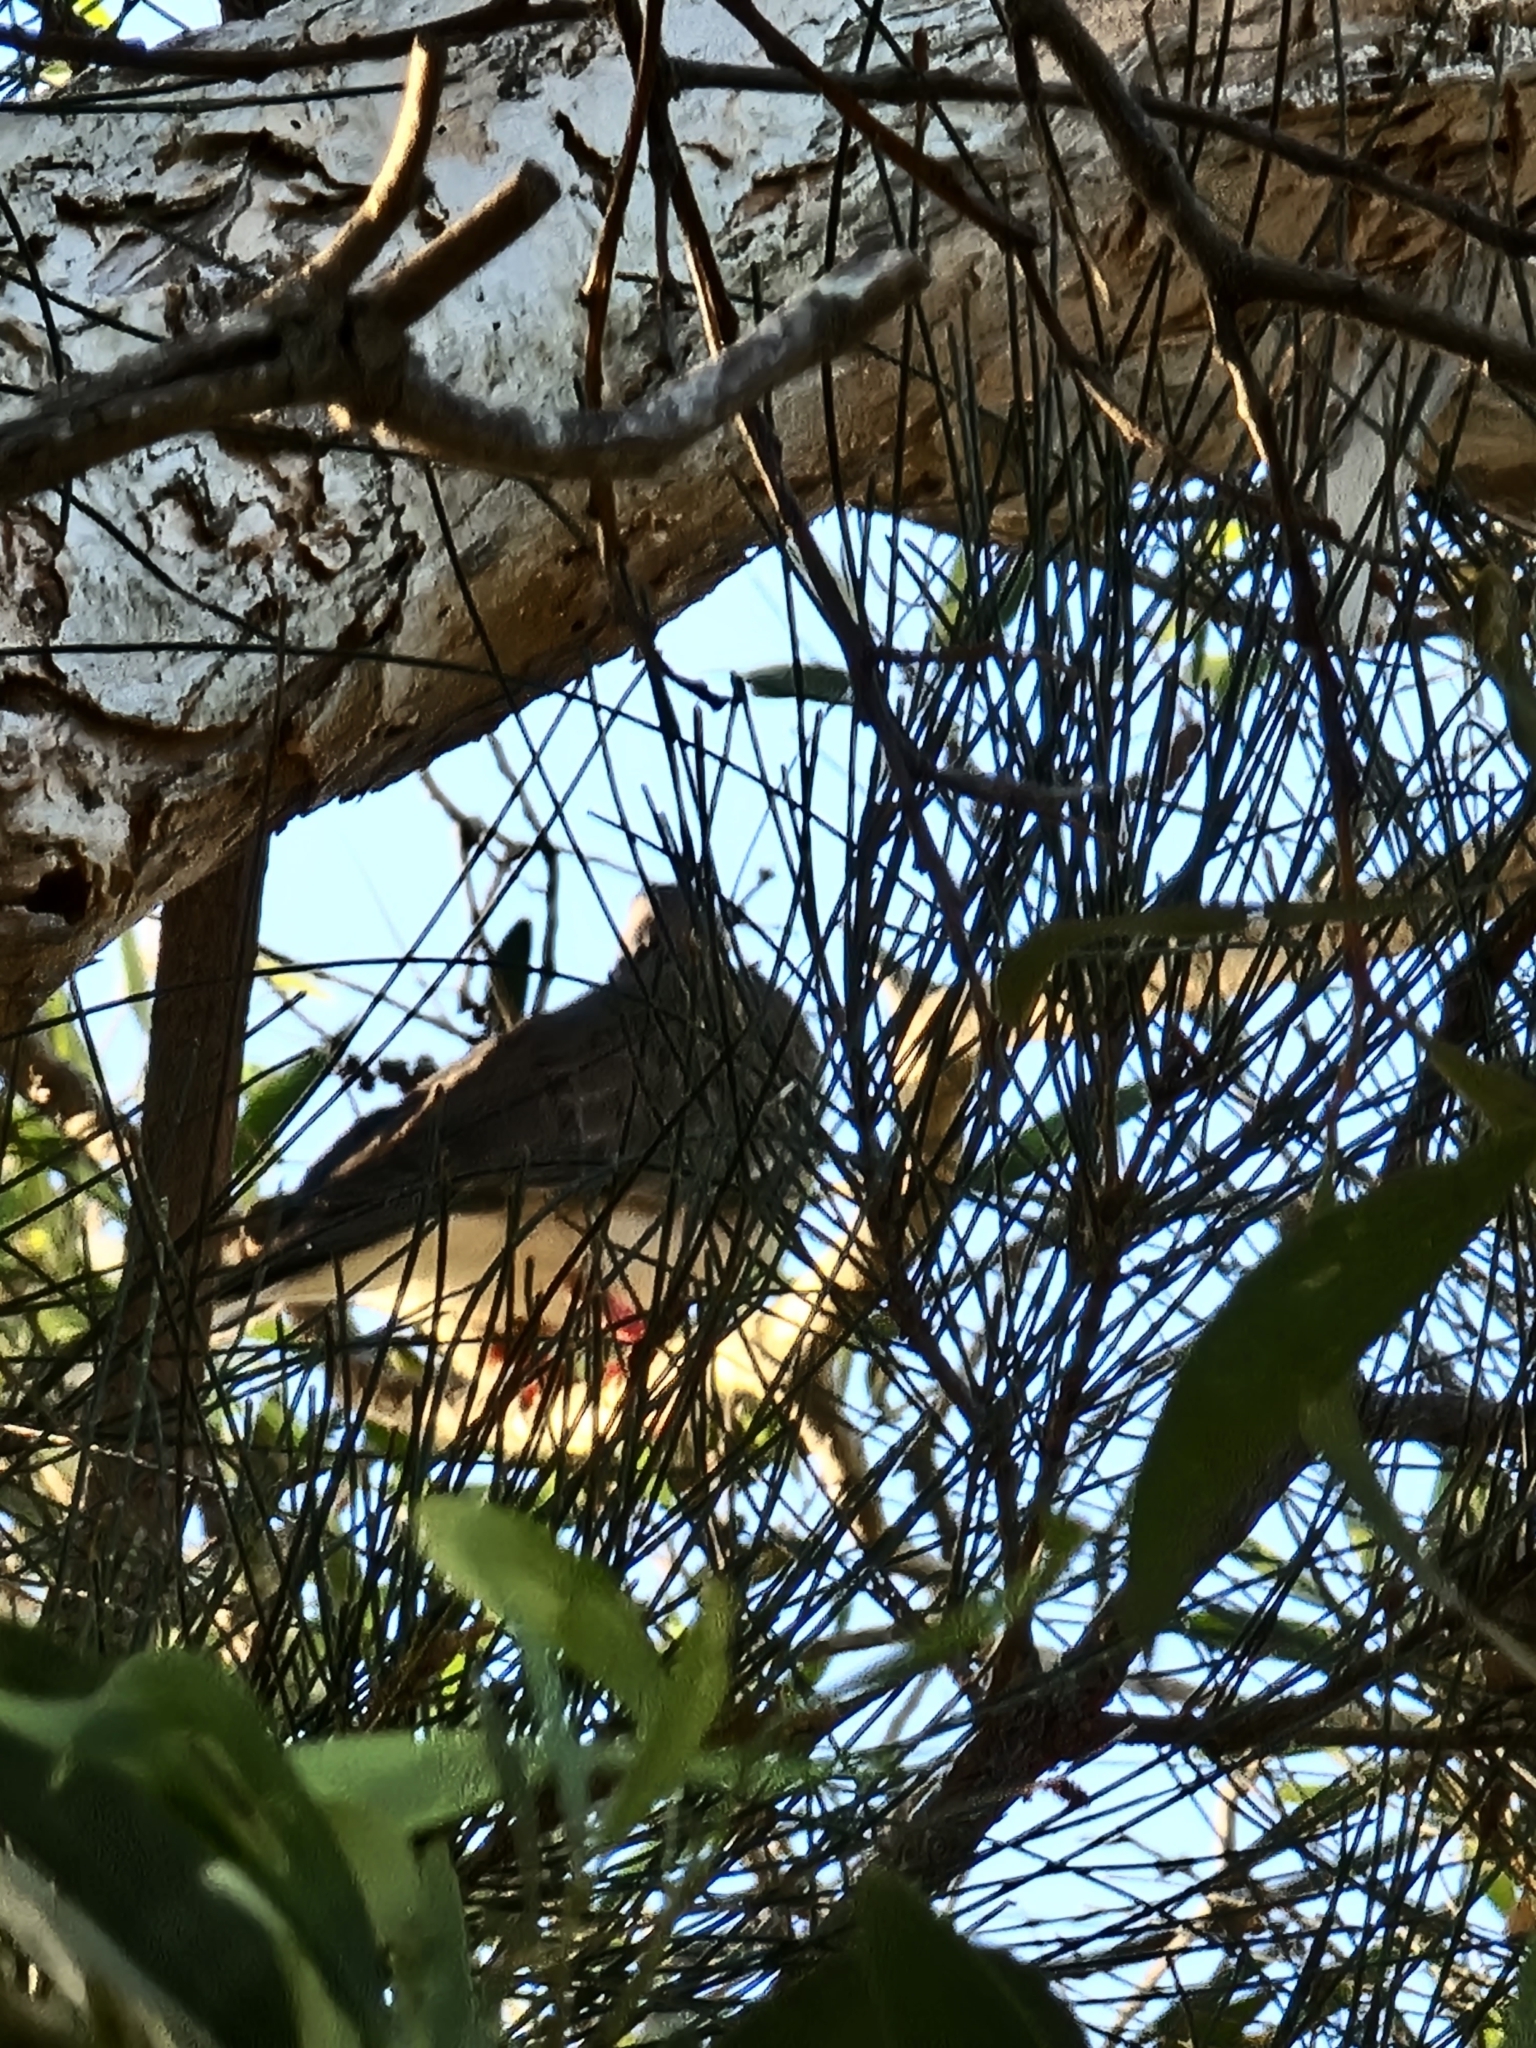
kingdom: Animalia
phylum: Chordata
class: Aves
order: Columbiformes
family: Columbidae
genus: Spilopelia
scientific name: Spilopelia chinensis
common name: Spotted dove
